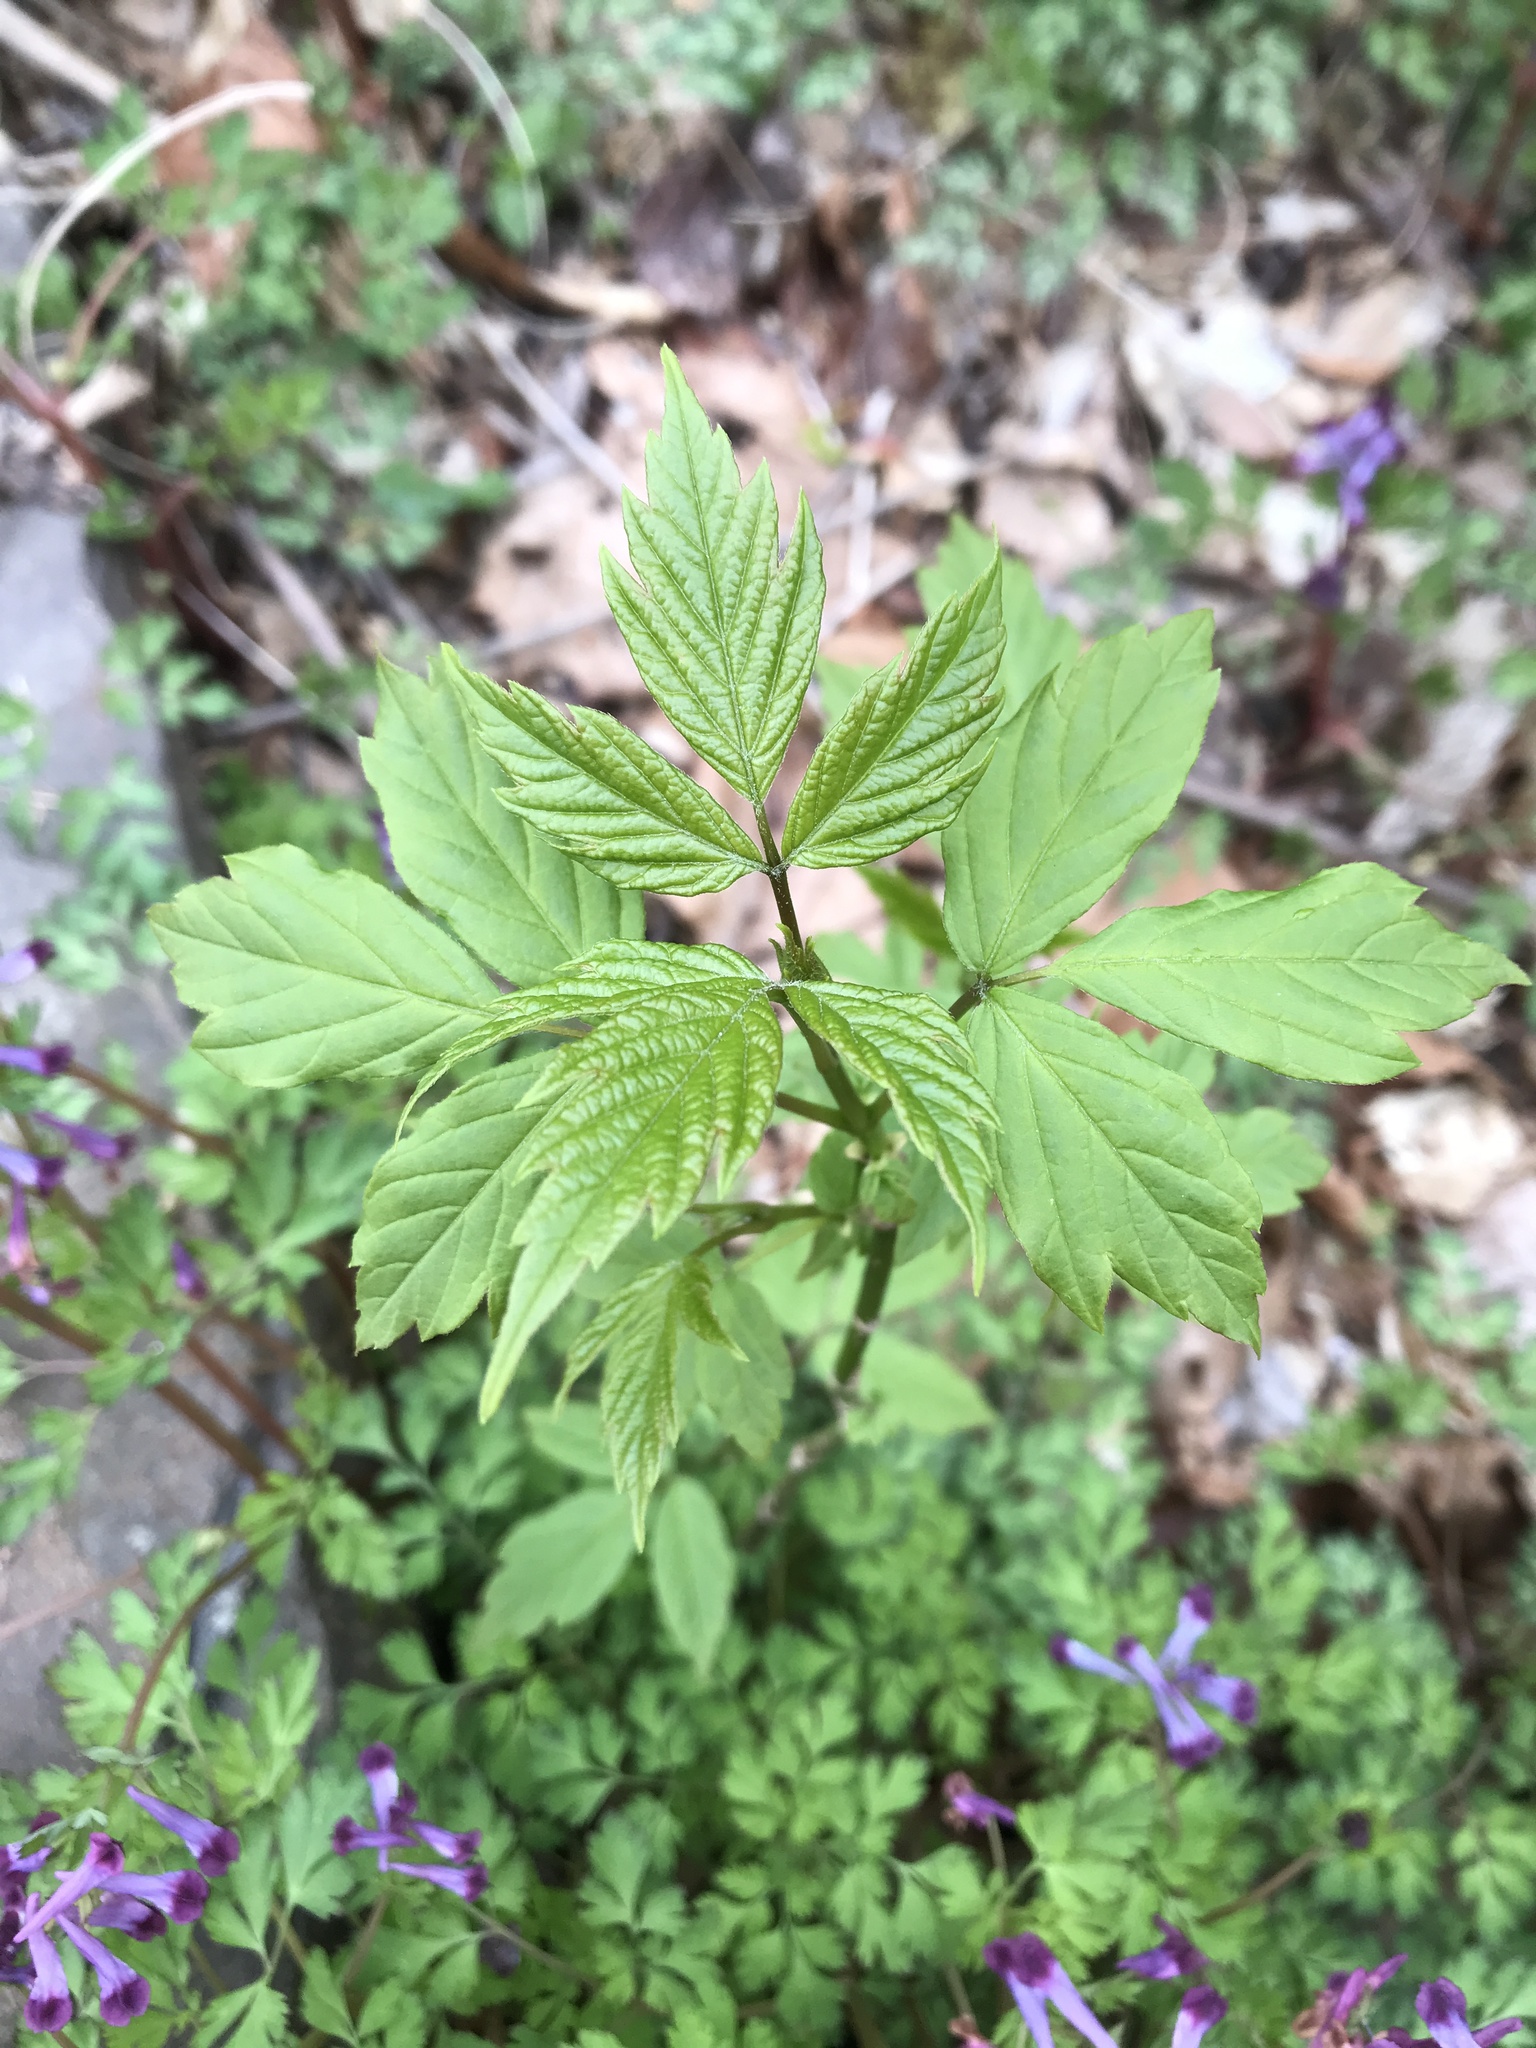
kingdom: Plantae
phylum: Tracheophyta
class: Magnoliopsida
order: Sapindales
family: Sapindaceae
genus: Acer
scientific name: Acer negundo
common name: Ashleaf maple
